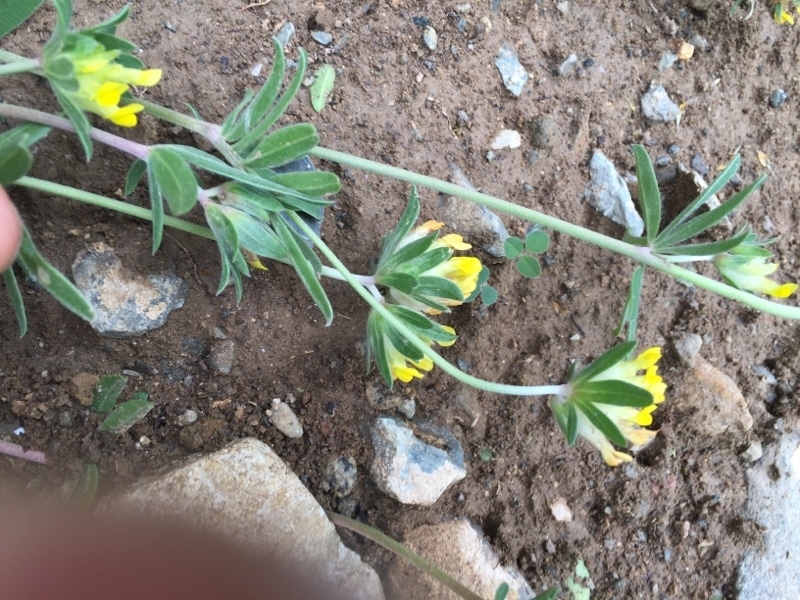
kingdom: Plantae
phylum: Tracheophyta
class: Magnoliopsida
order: Fabales
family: Fabaceae
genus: Anthyllis
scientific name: Anthyllis vulneraria
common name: Kidney vetch
